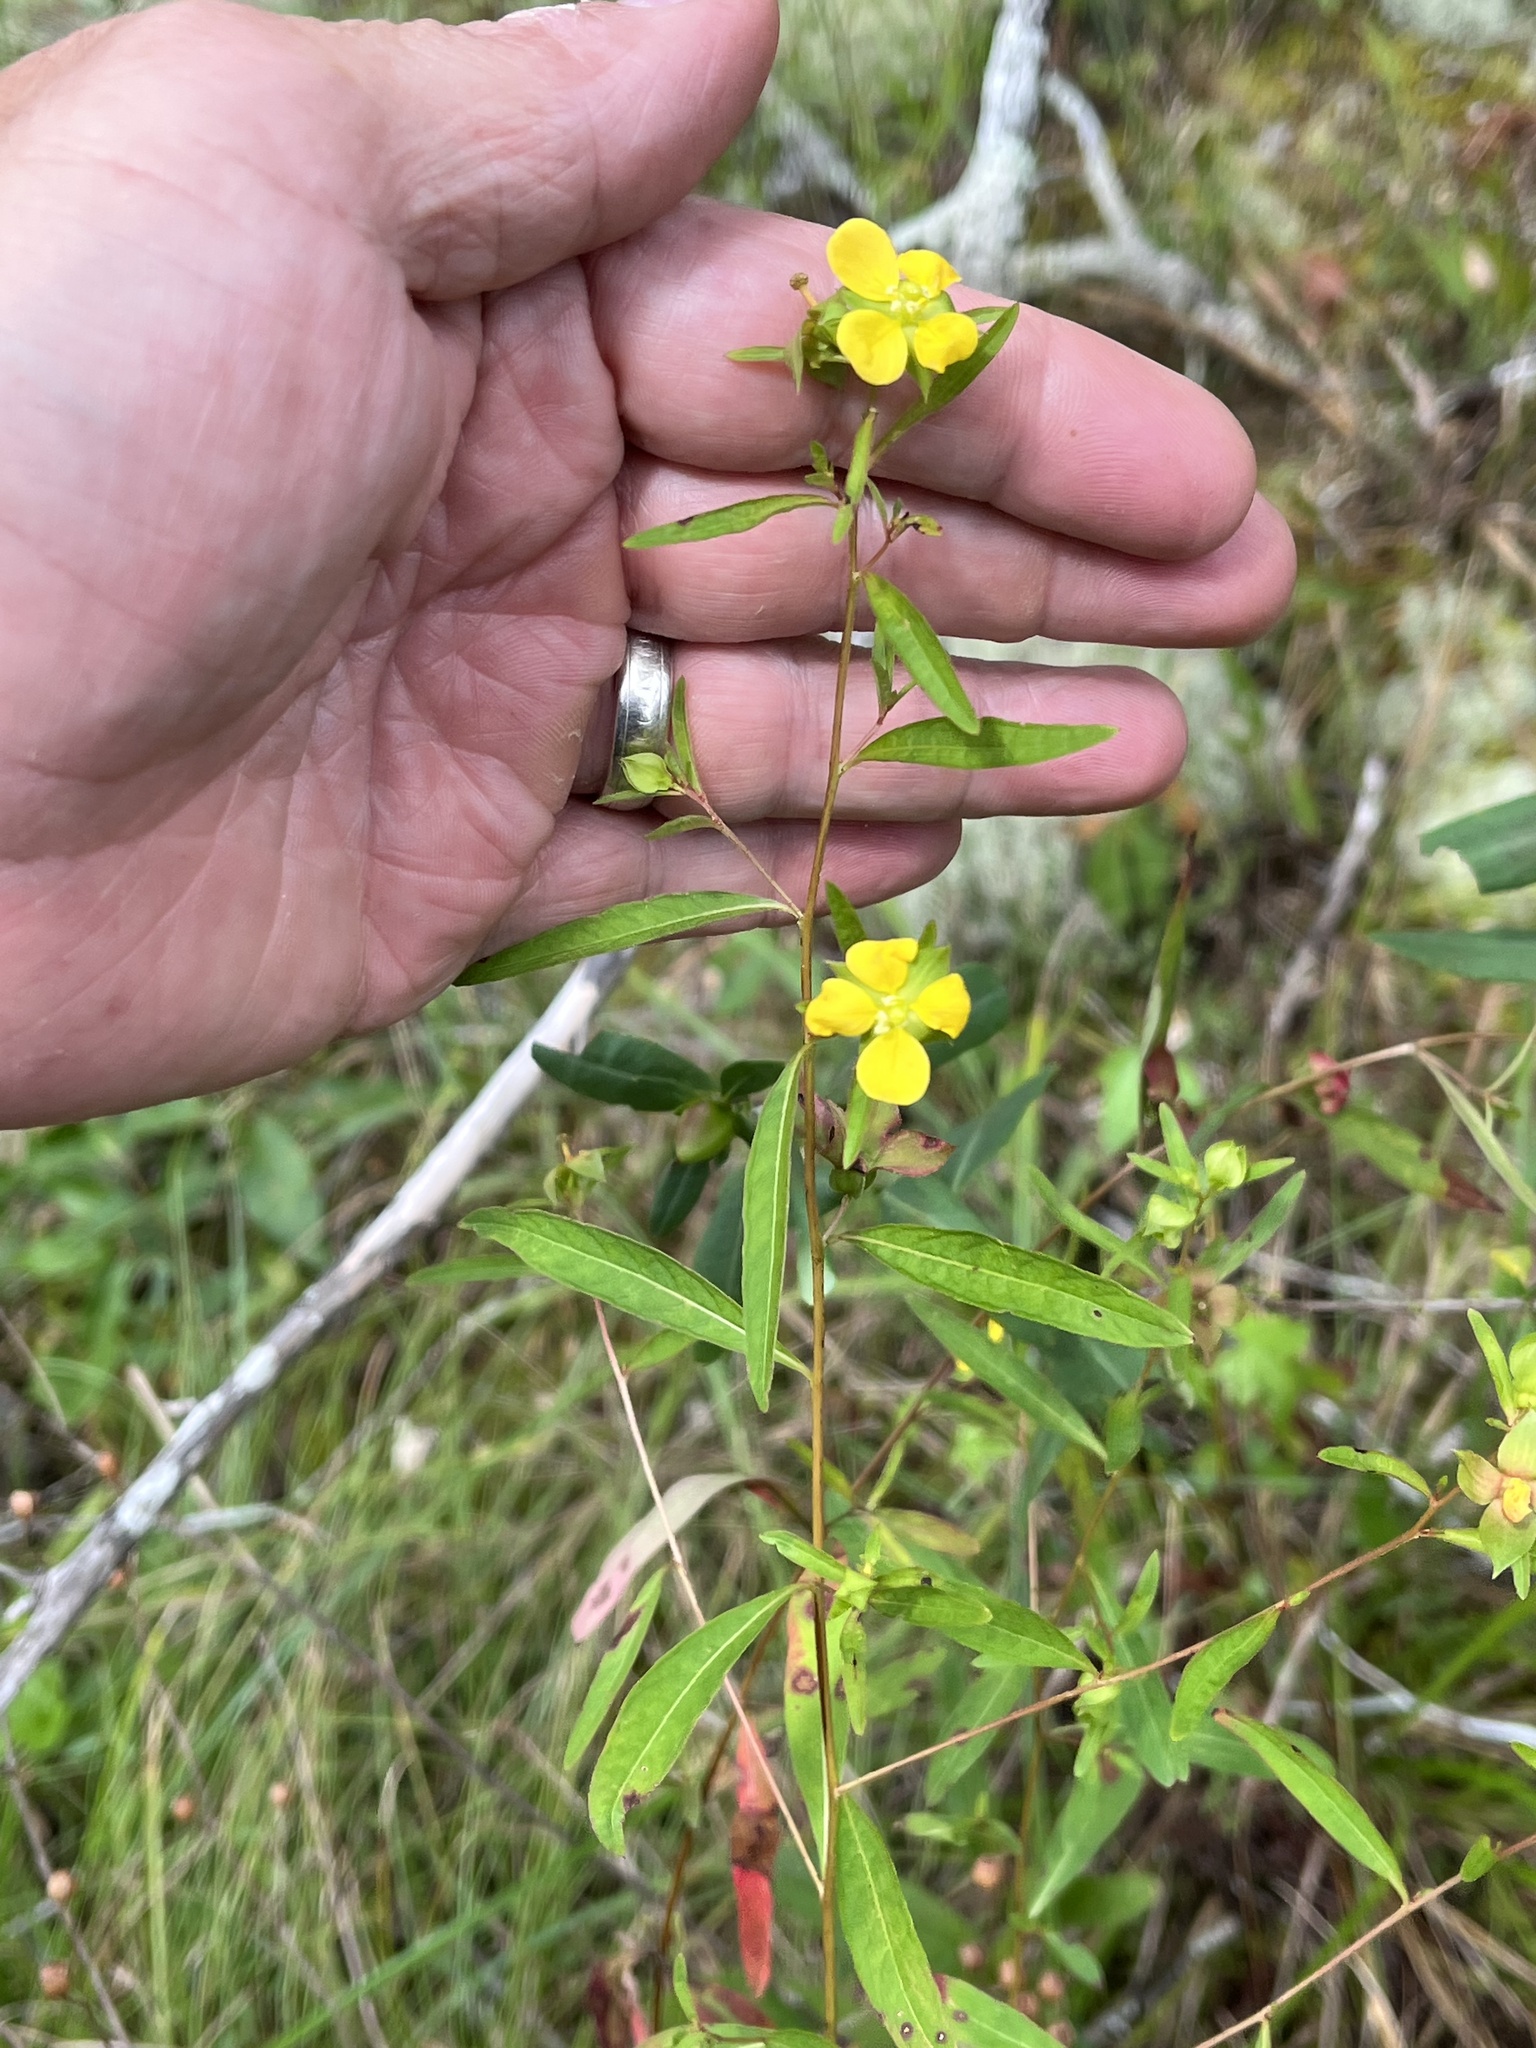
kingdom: Plantae
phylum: Tracheophyta
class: Magnoliopsida
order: Myrtales
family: Onagraceae
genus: Ludwigia
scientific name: Ludwigia alternifolia
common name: Rattlebox
